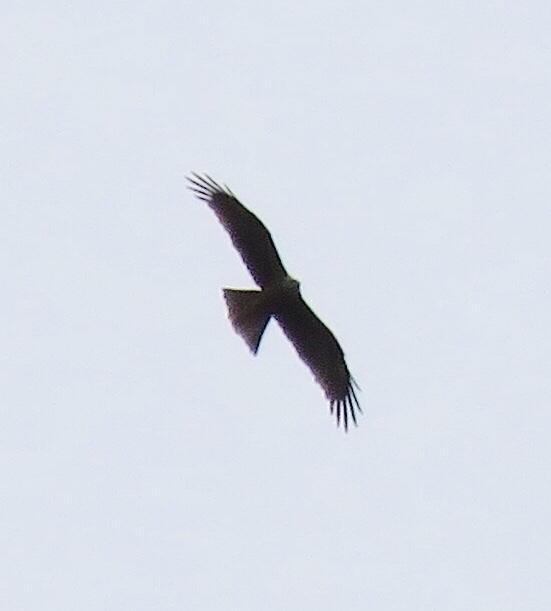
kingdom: Animalia
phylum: Chordata
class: Aves
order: Accipitriformes
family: Accipitridae
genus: Milvus
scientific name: Milvus migrans
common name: Black kite
